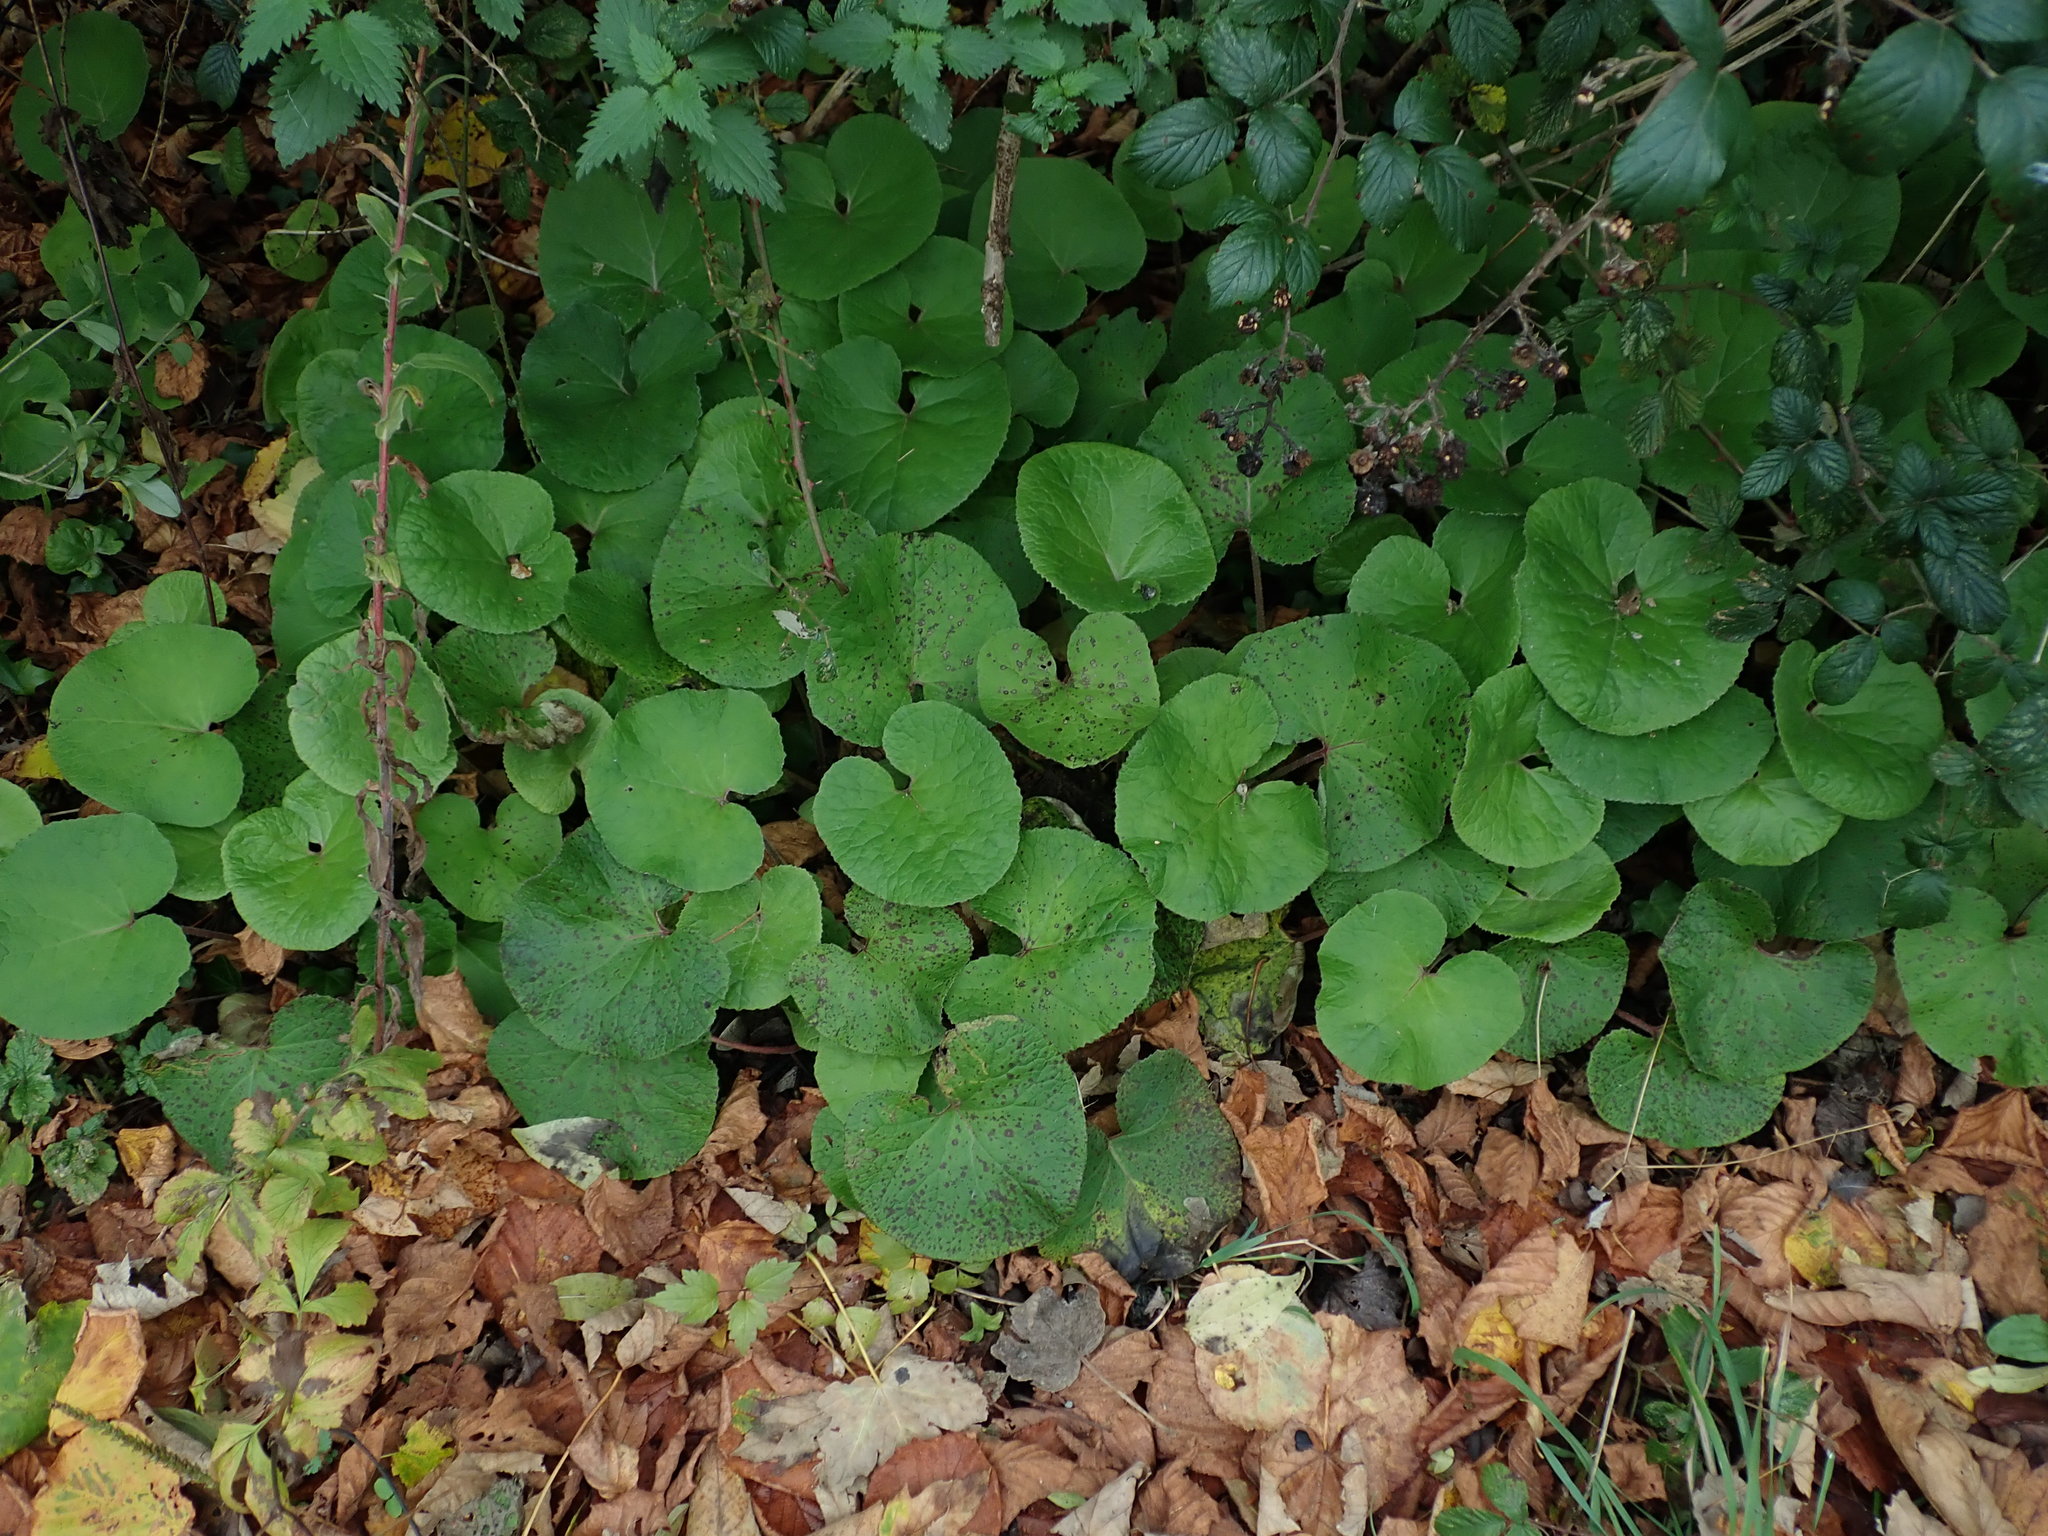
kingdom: Plantae
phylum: Tracheophyta
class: Magnoliopsida
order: Asterales
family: Asteraceae
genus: Petasites
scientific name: Petasites pyrenaicus
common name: Winter heliotrope
